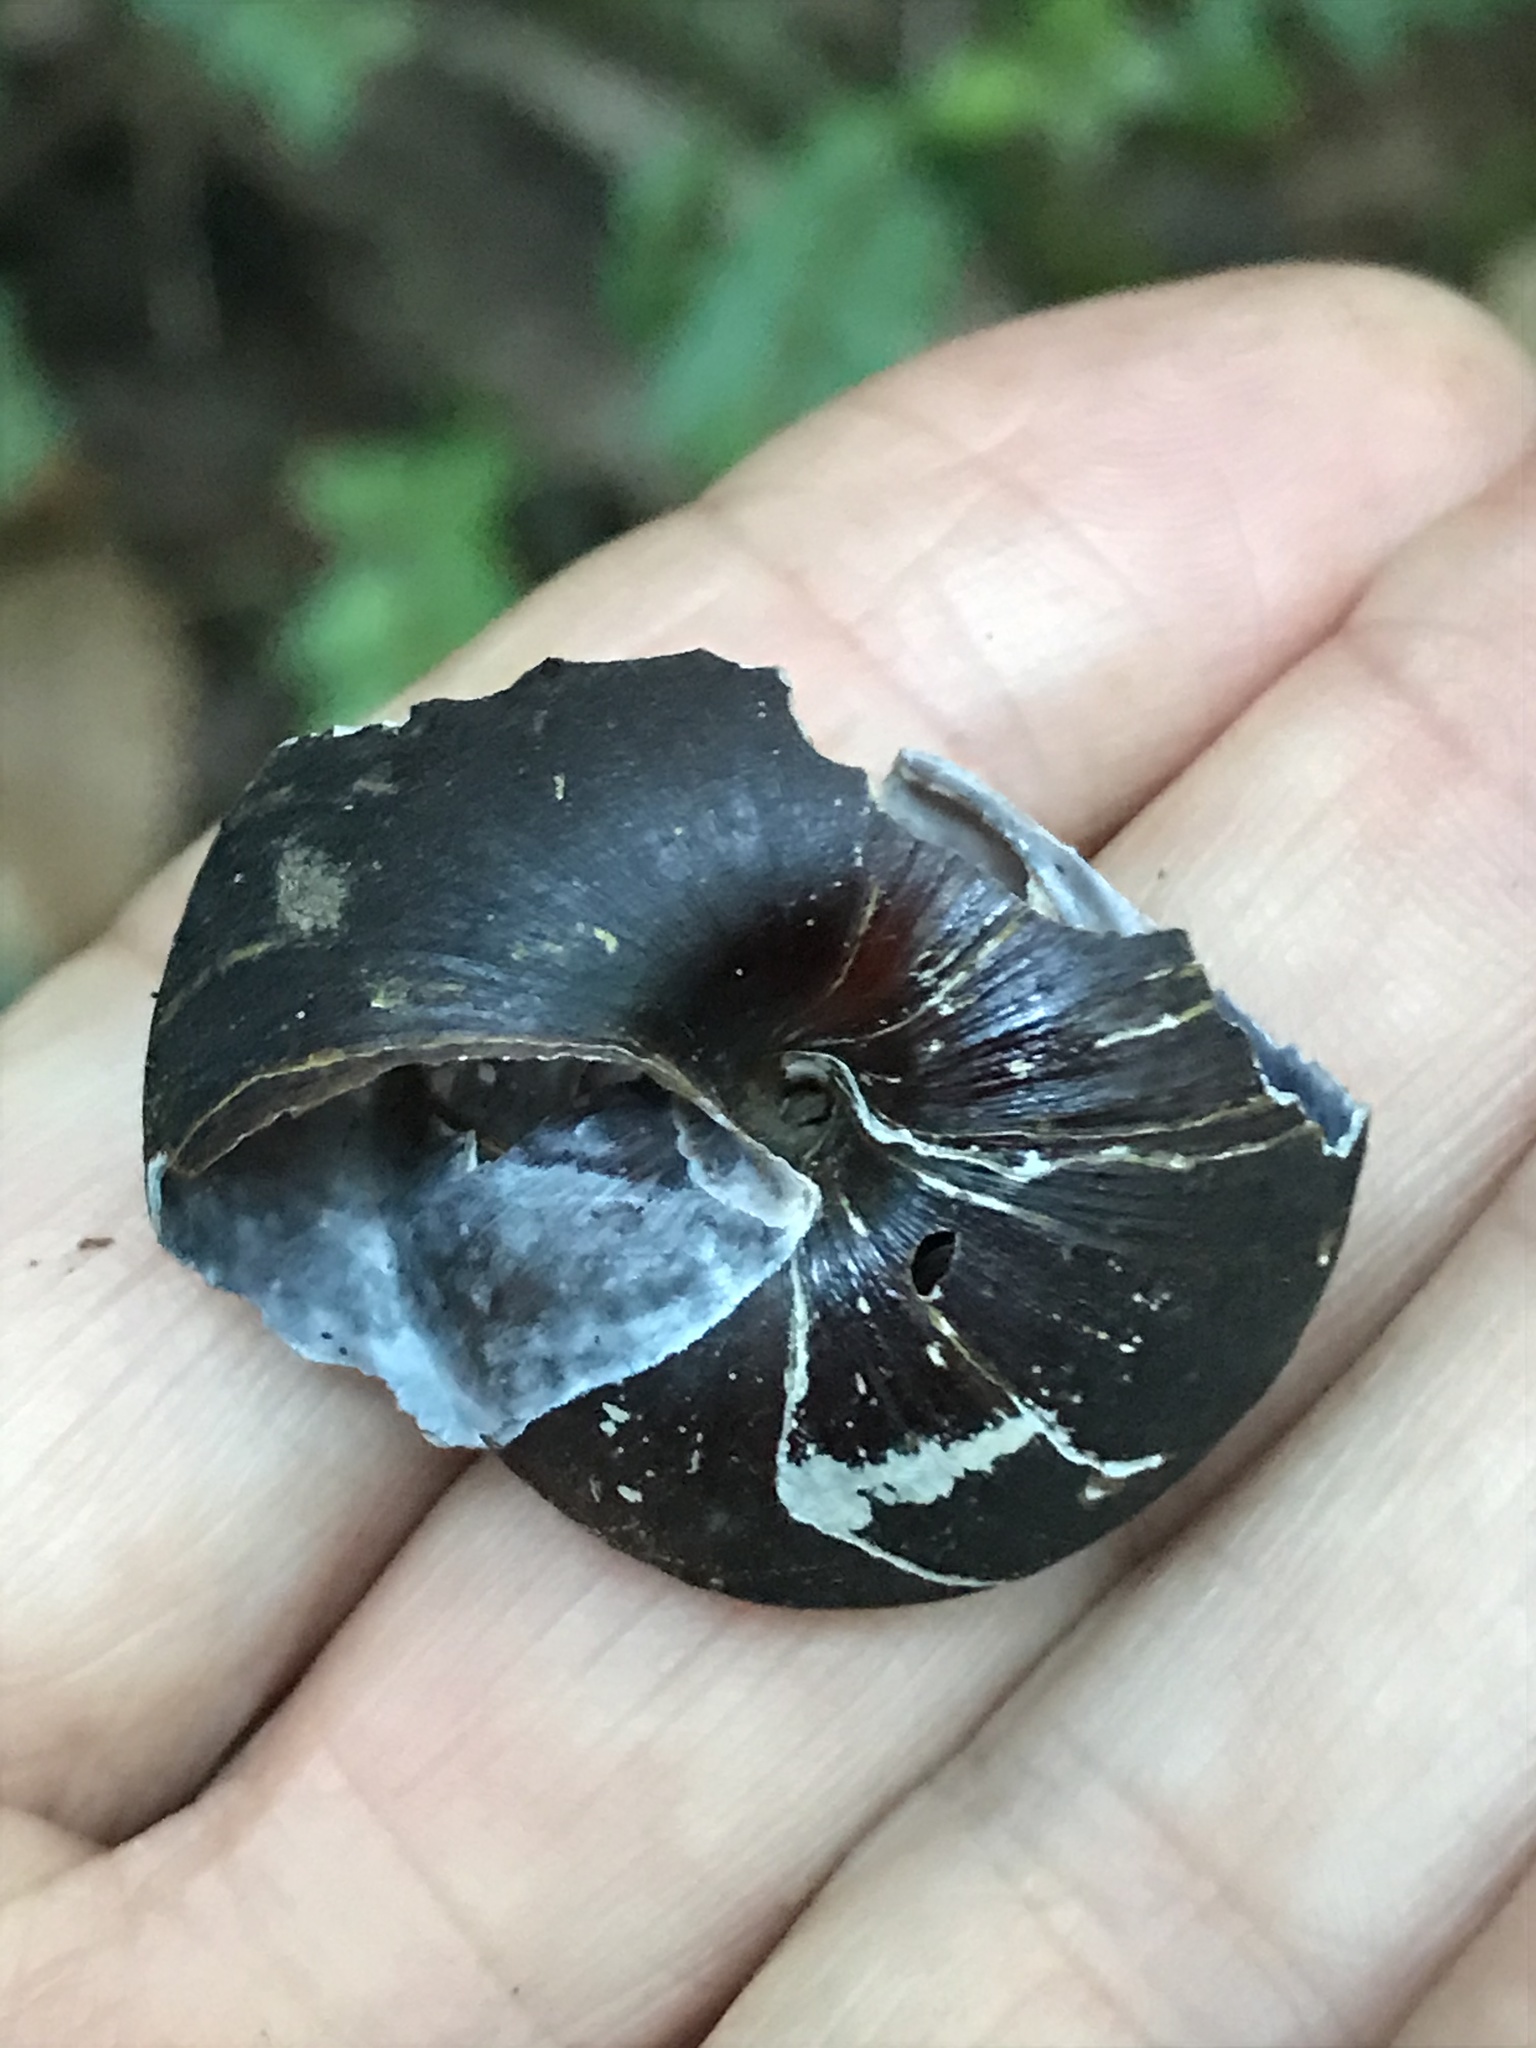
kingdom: Animalia
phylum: Mollusca
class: Gastropoda
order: Stylommatophora
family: Xanthonychidae
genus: Monadenia
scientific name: Monadenia infumata
